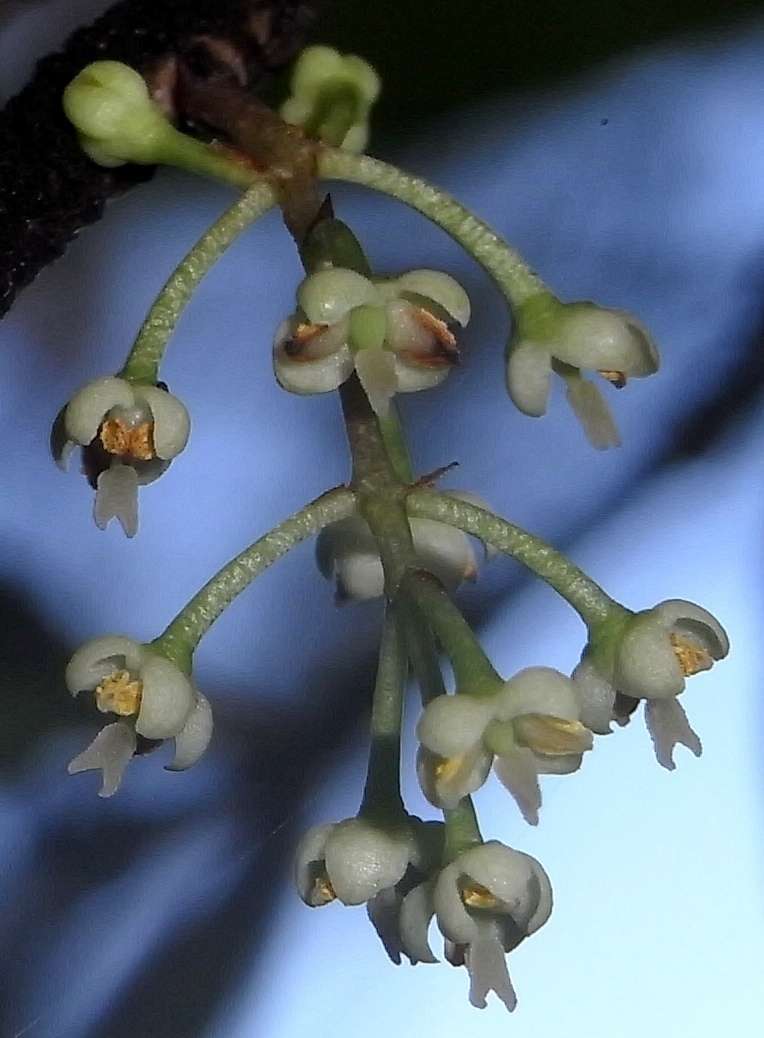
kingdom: Plantae
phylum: Tracheophyta
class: Magnoliopsida
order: Lamiales
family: Oleaceae
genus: Notelaea
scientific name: Notelaea ligustrina
